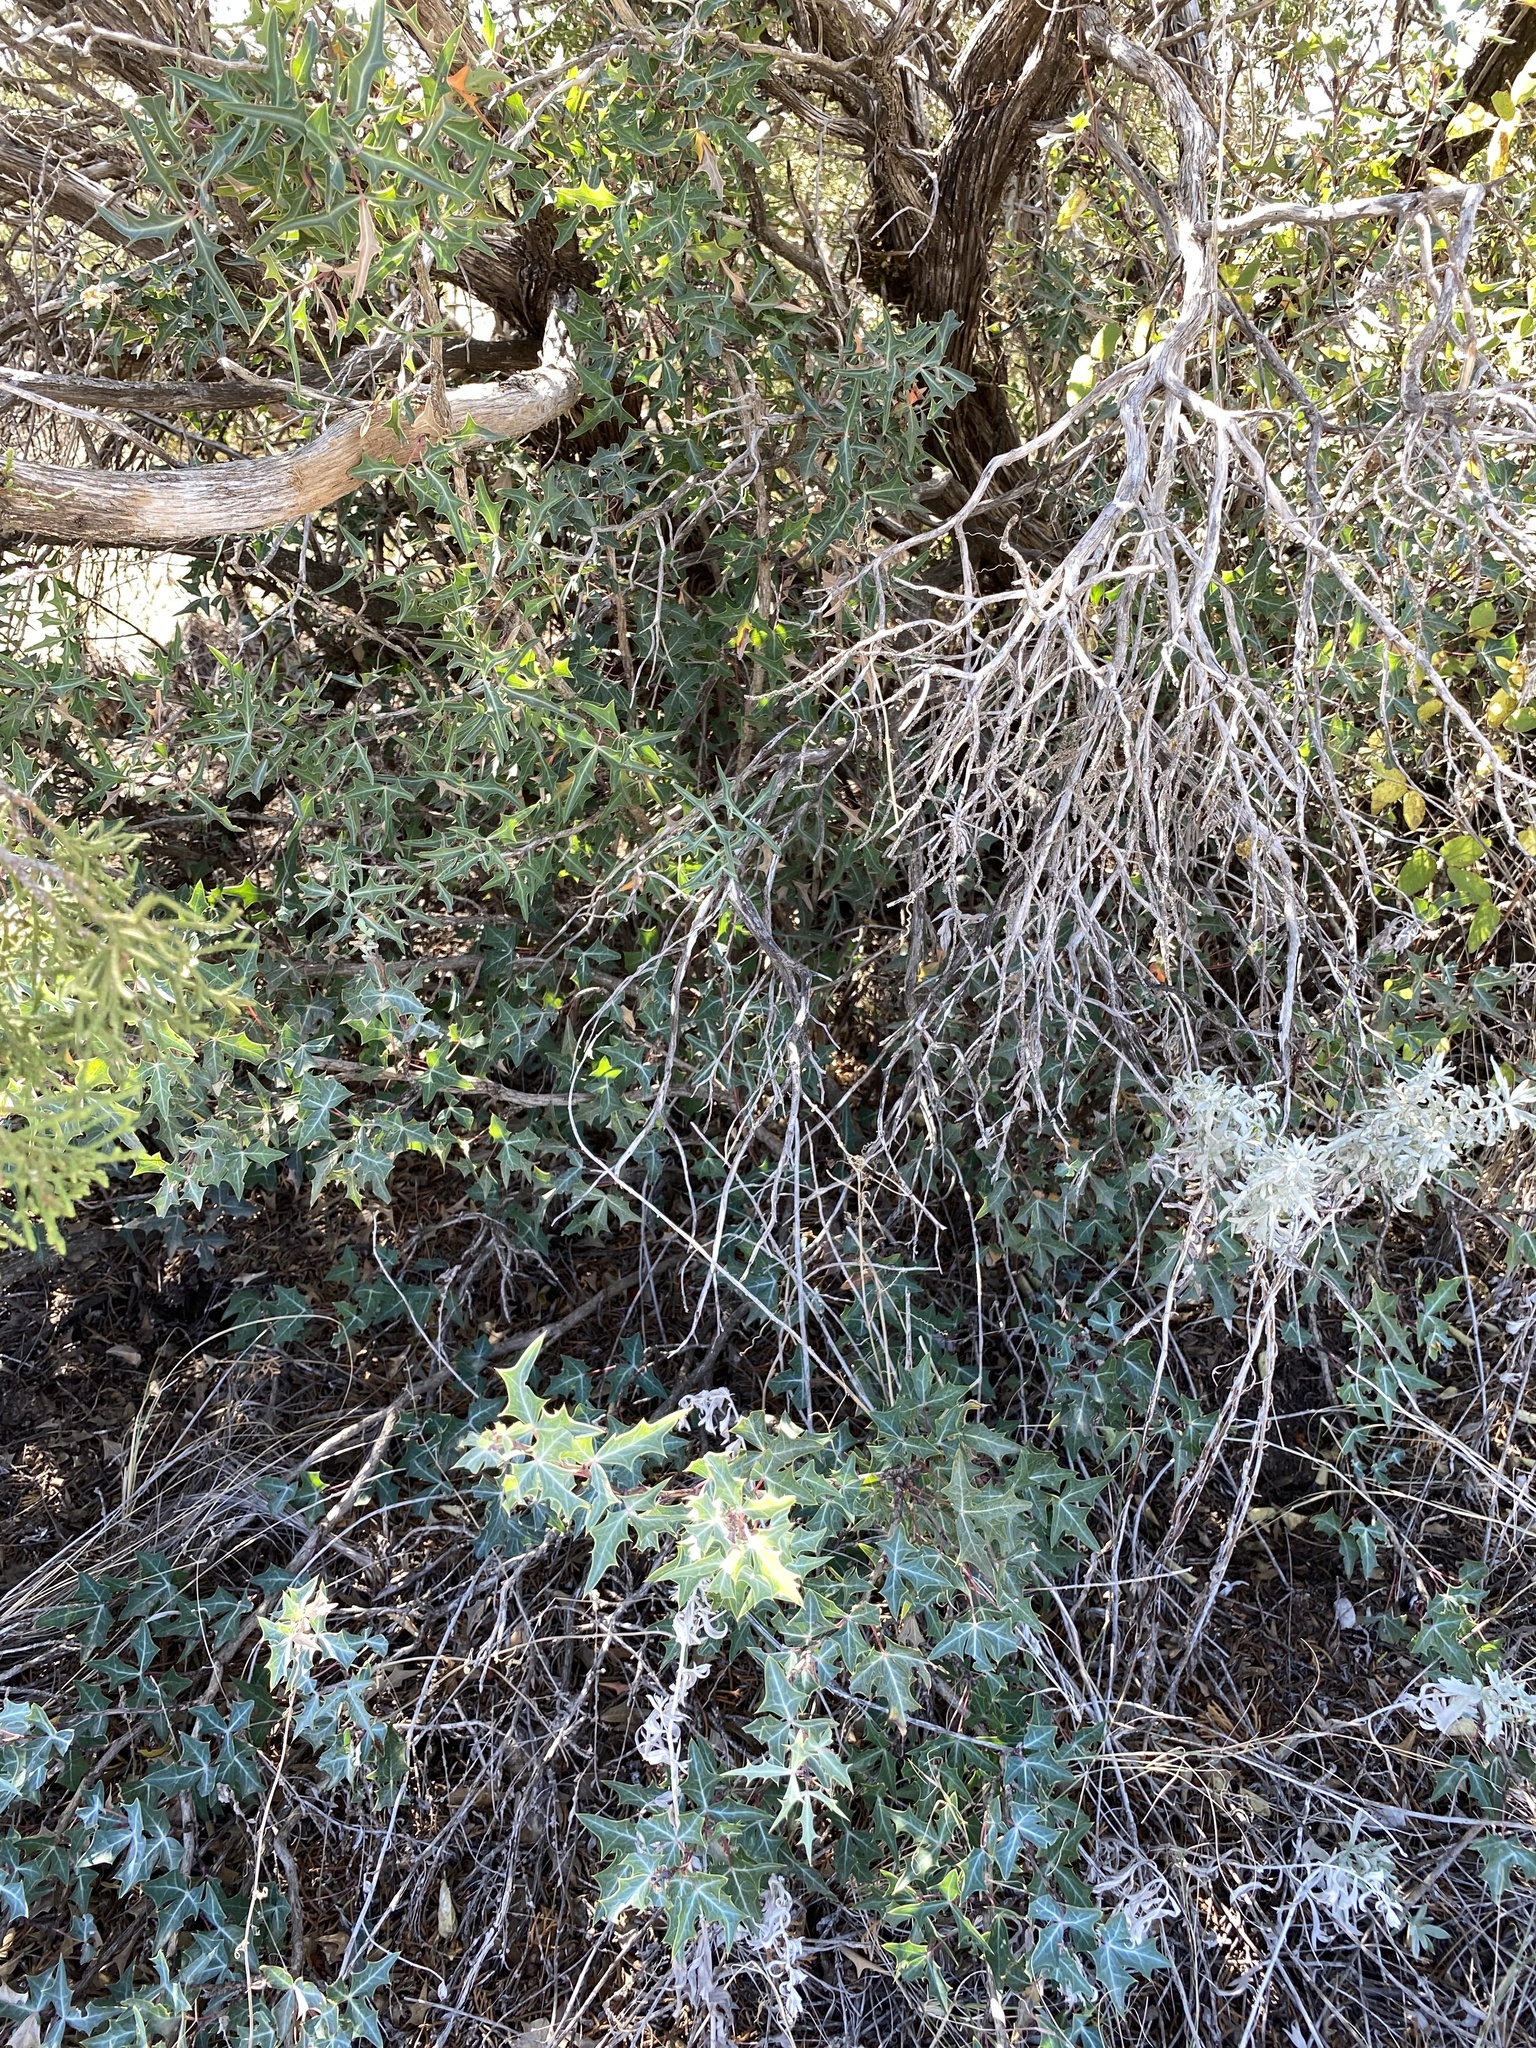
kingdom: Plantae
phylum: Tracheophyta
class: Magnoliopsida
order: Ranunculales
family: Berberidaceae
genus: Alloberberis
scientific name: Alloberberis trifoliolata
